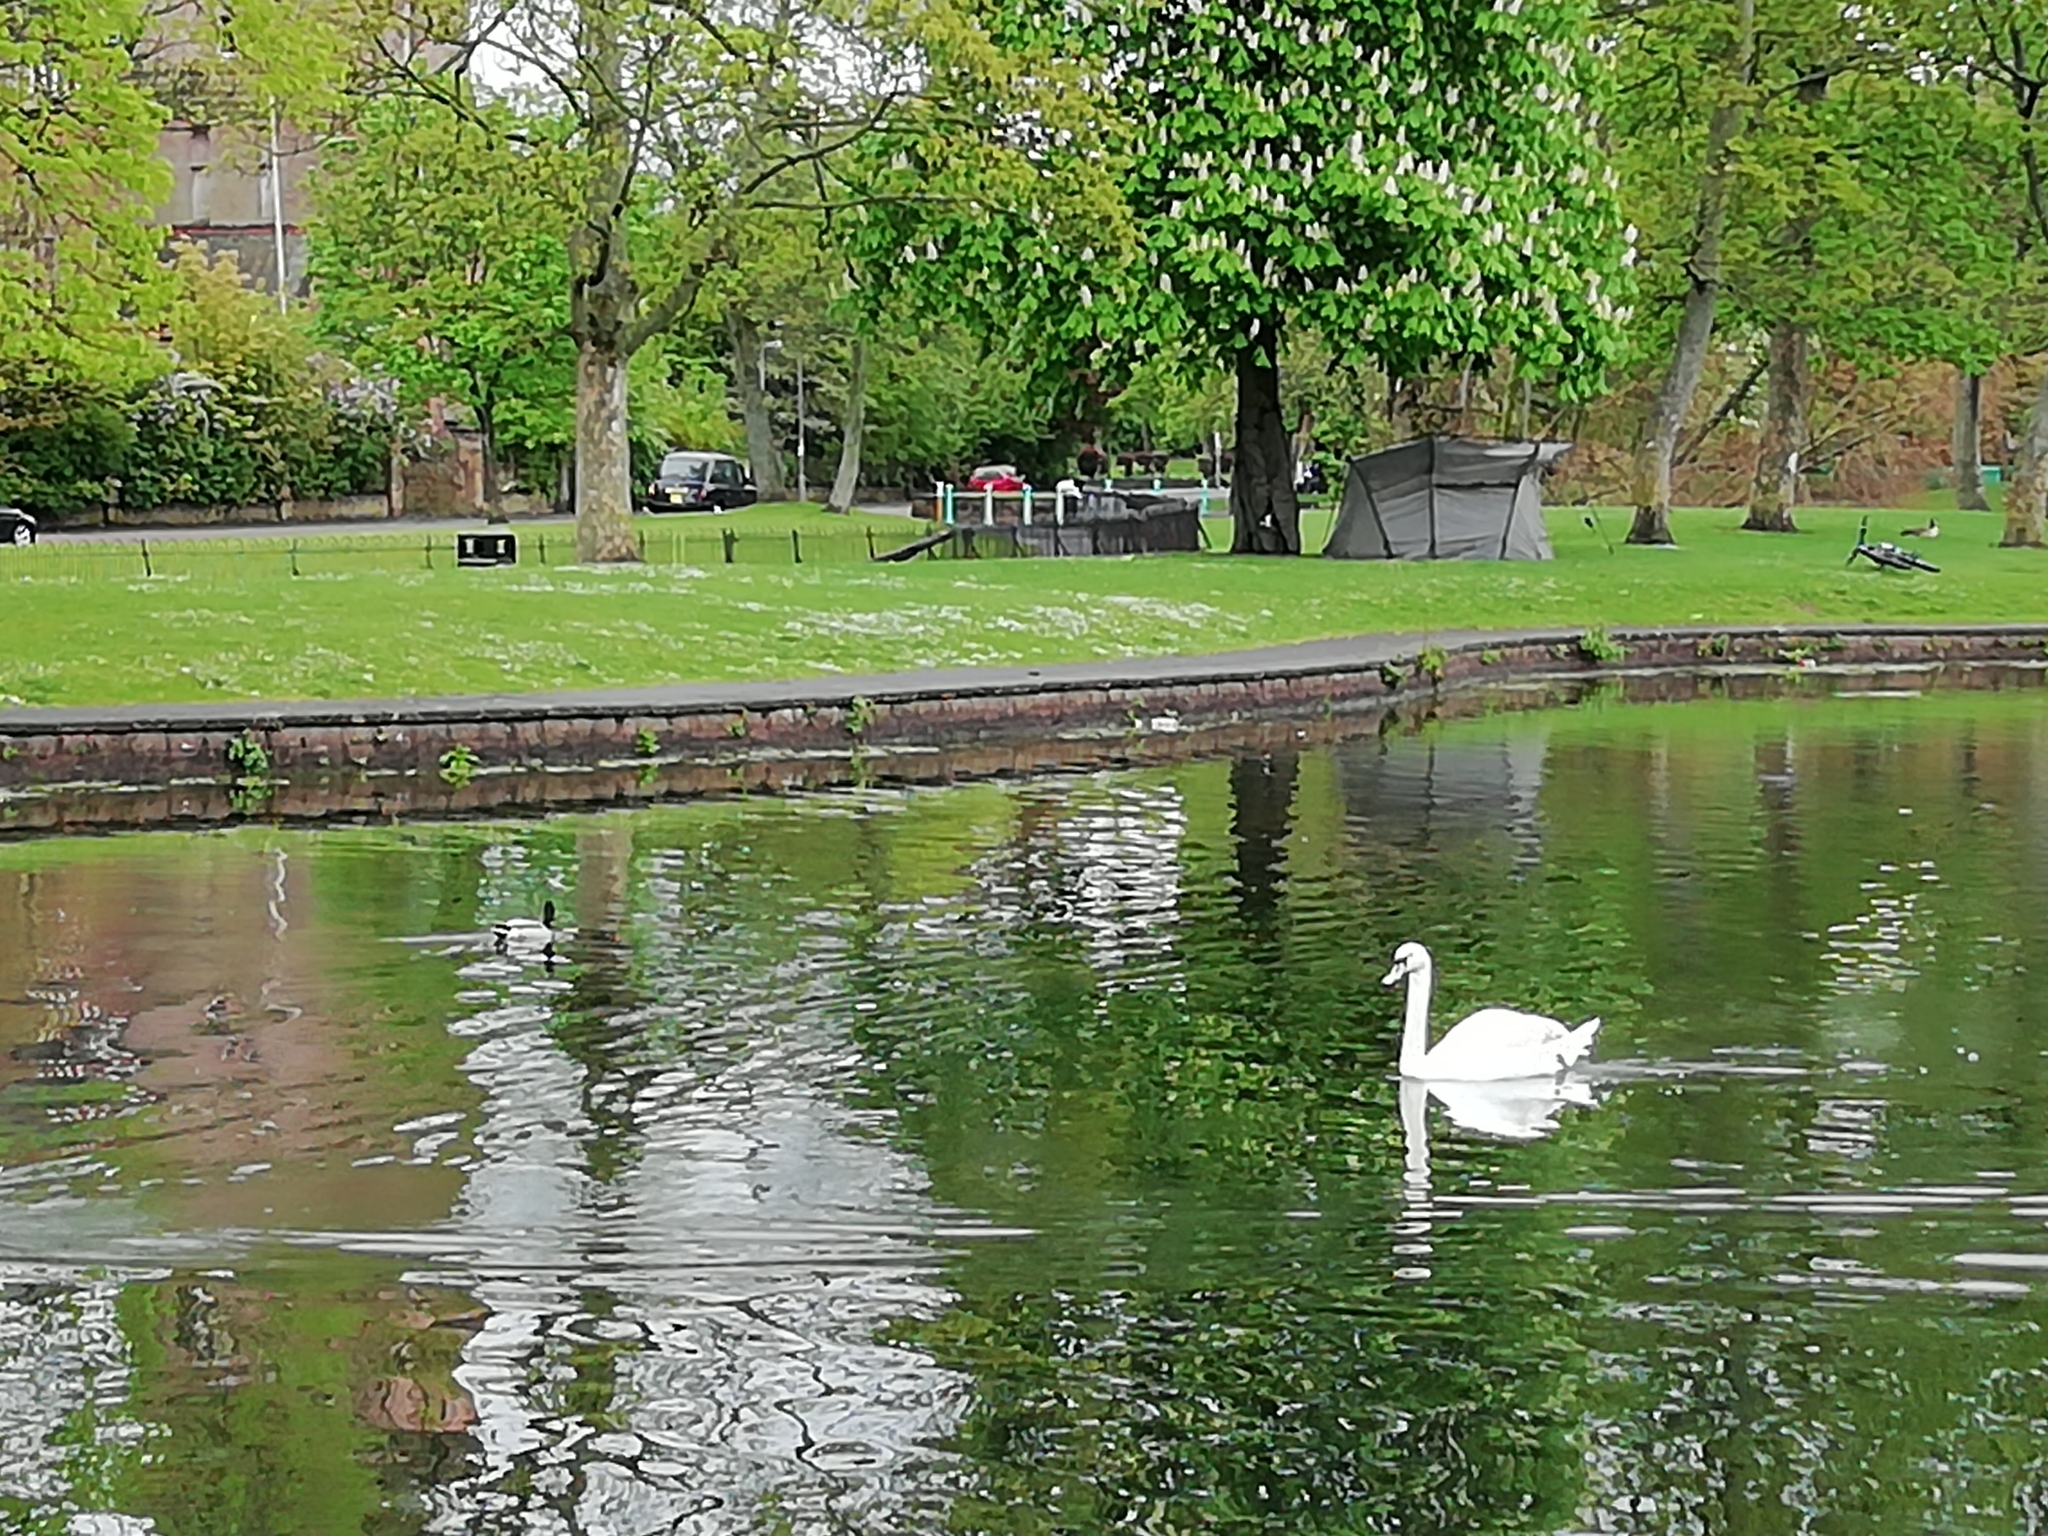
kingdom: Animalia
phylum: Chordata
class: Aves
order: Anseriformes
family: Anatidae
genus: Anas
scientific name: Anas platyrhynchos
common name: Mallard
